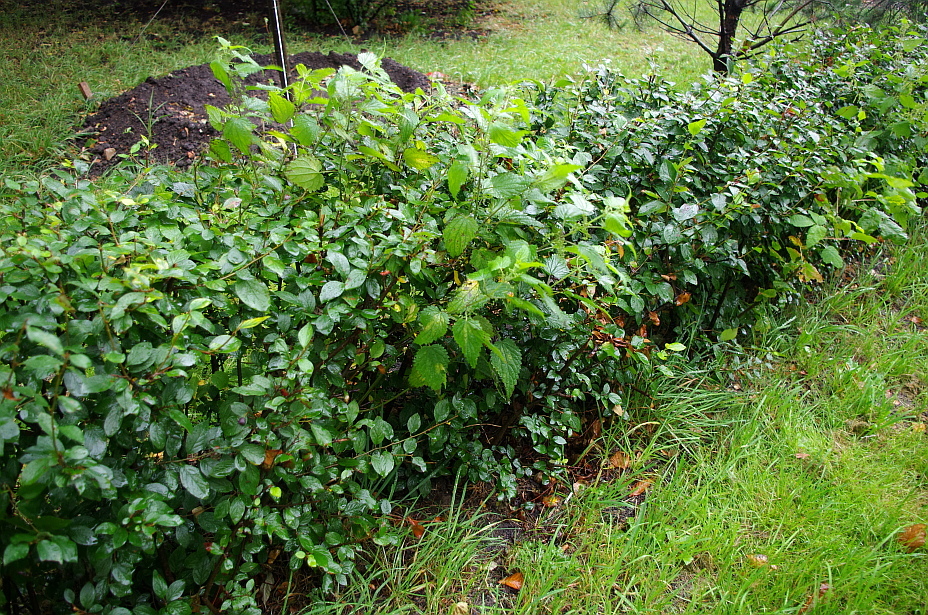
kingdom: Plantae
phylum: Tracheophyta
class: Magnoliopsida
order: Rosales
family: Urticaceae
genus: Urtica
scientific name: Urtica dioica
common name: Common nettle
